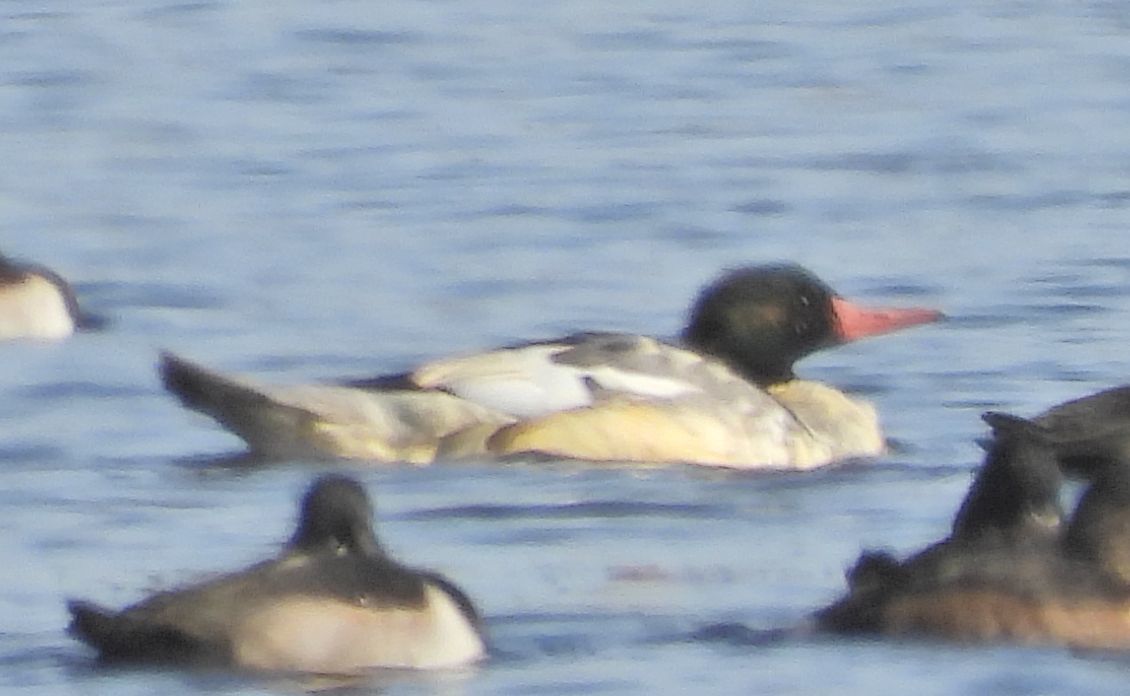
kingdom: Animalia
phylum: Chordata
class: Aves
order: Anseriformes
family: Anatidae
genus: Mergus
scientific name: Mergus merganser
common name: Common merganser
